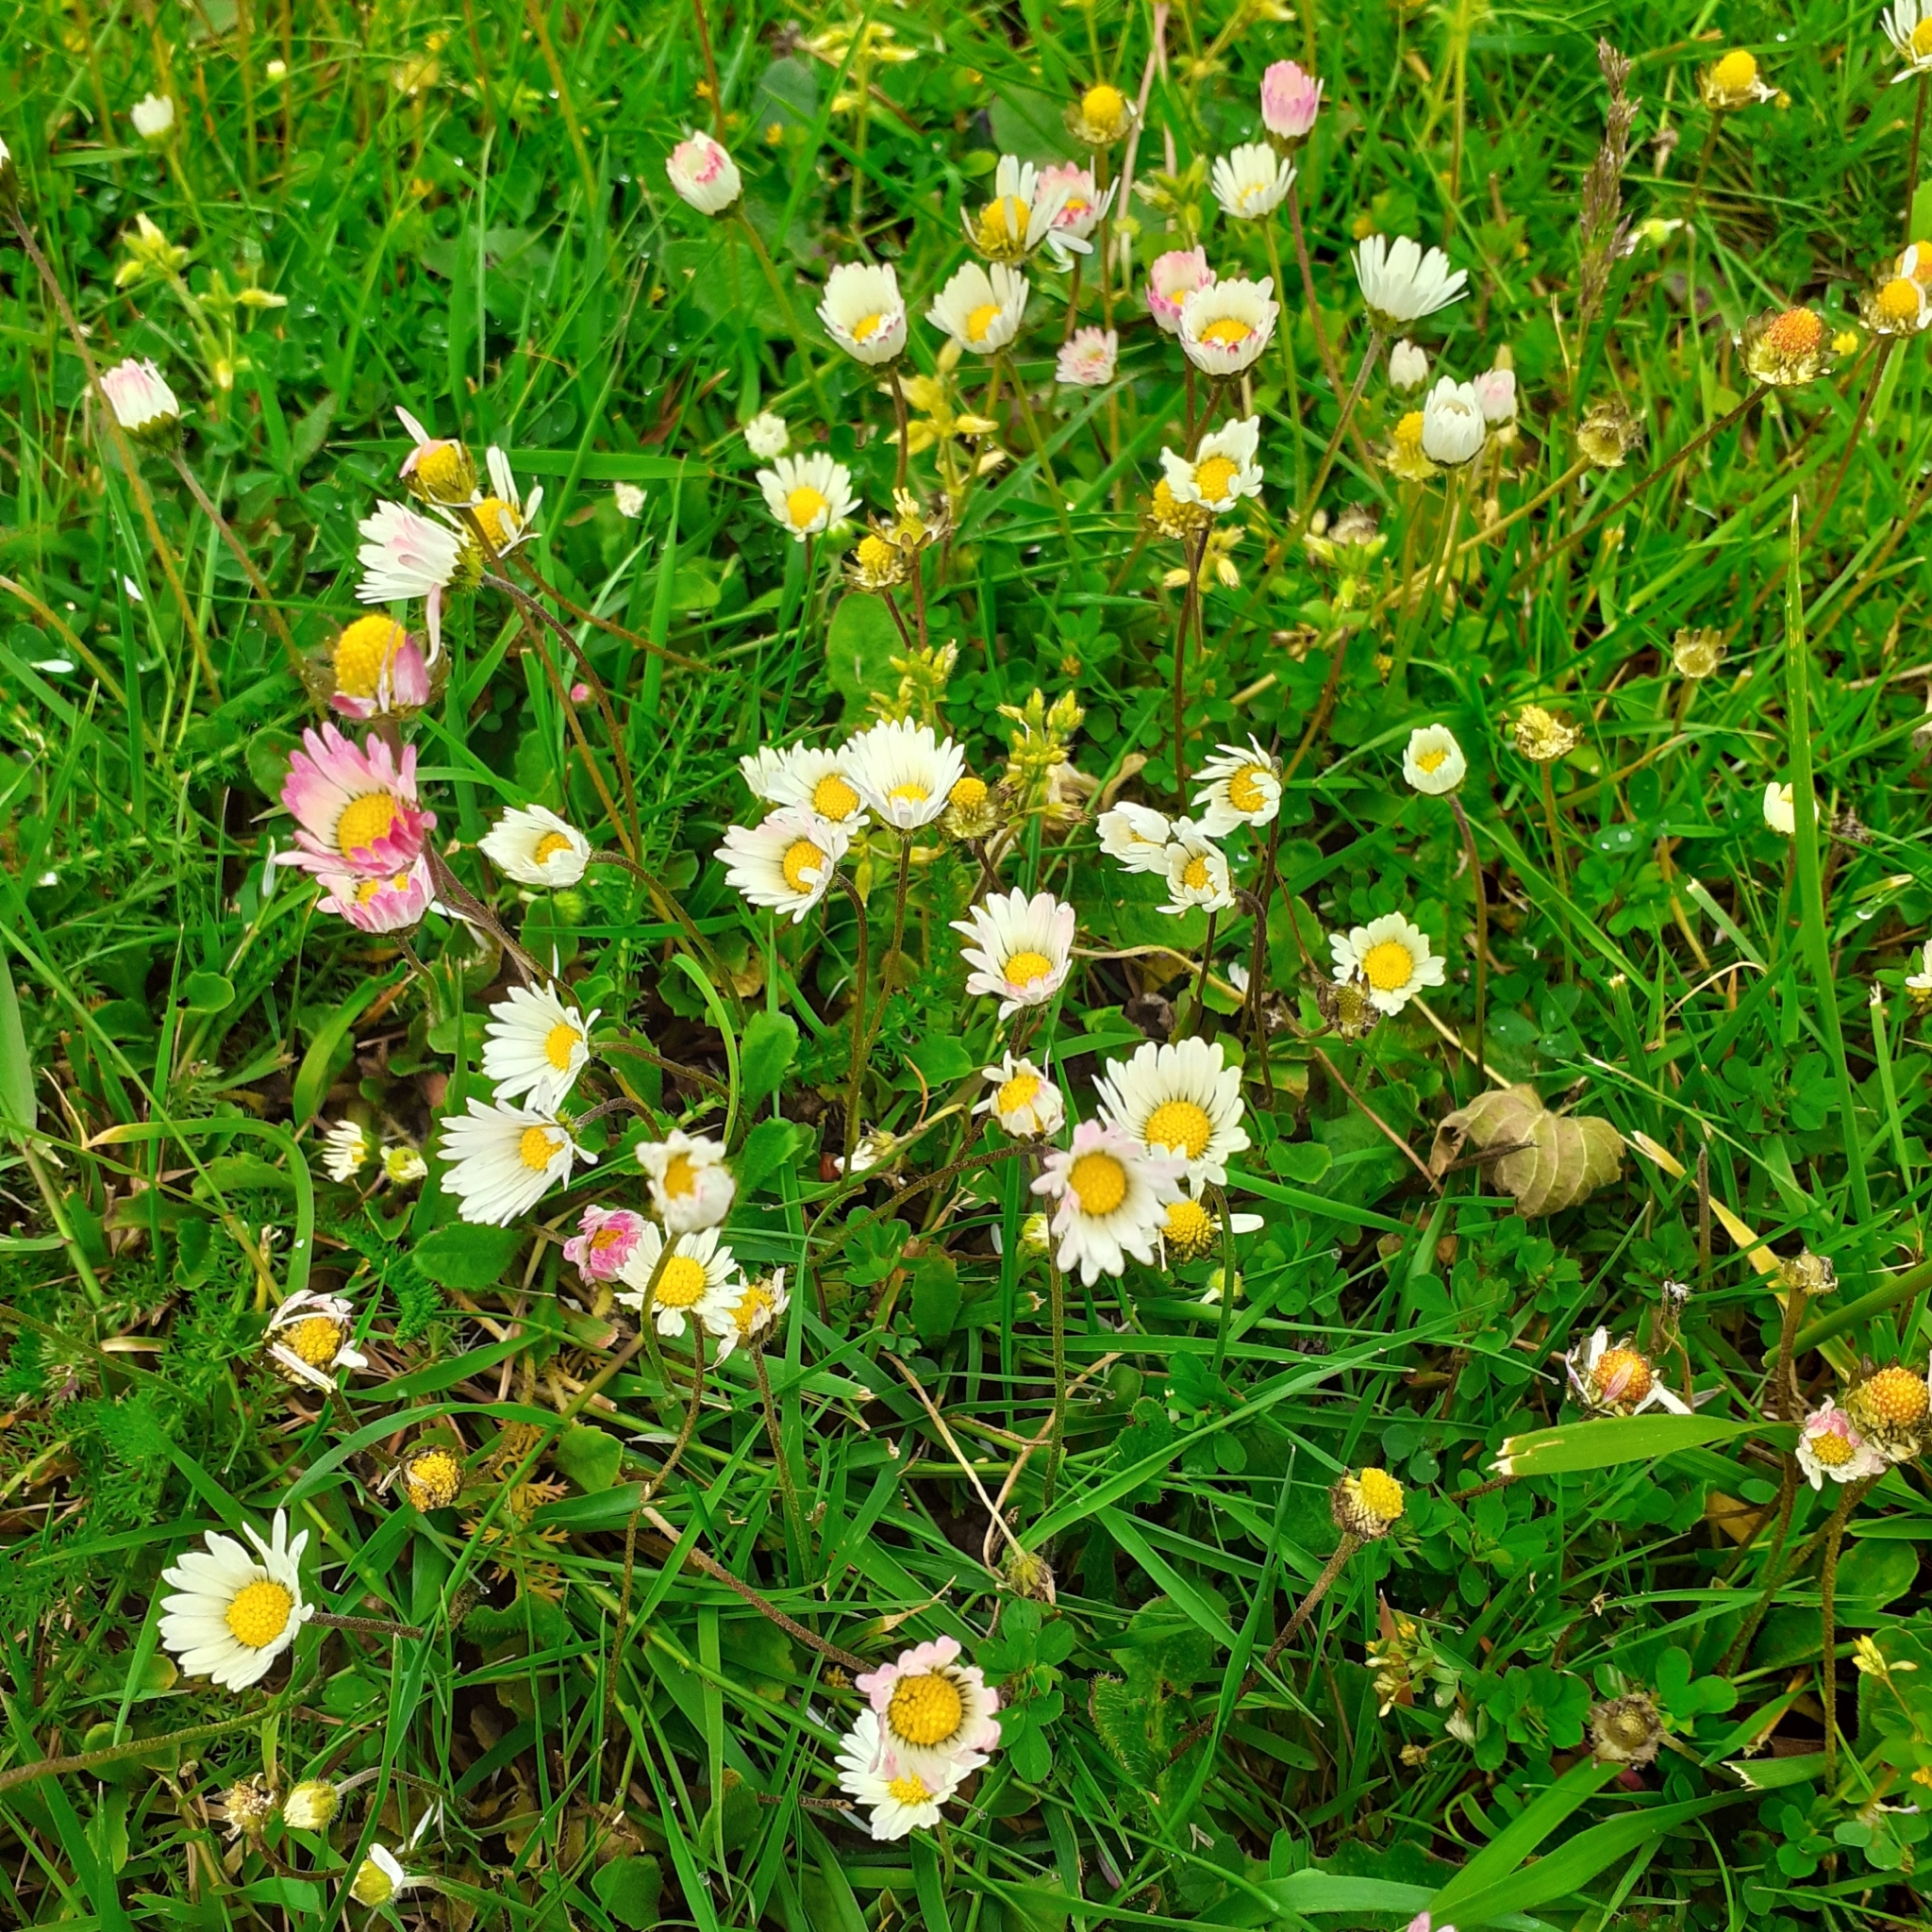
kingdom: Plantae
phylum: Tracheophyta
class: Magnoliopsida
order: Asterales
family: Asteraceae
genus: Bellis
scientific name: Bellis perennis
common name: Lawndaisy
